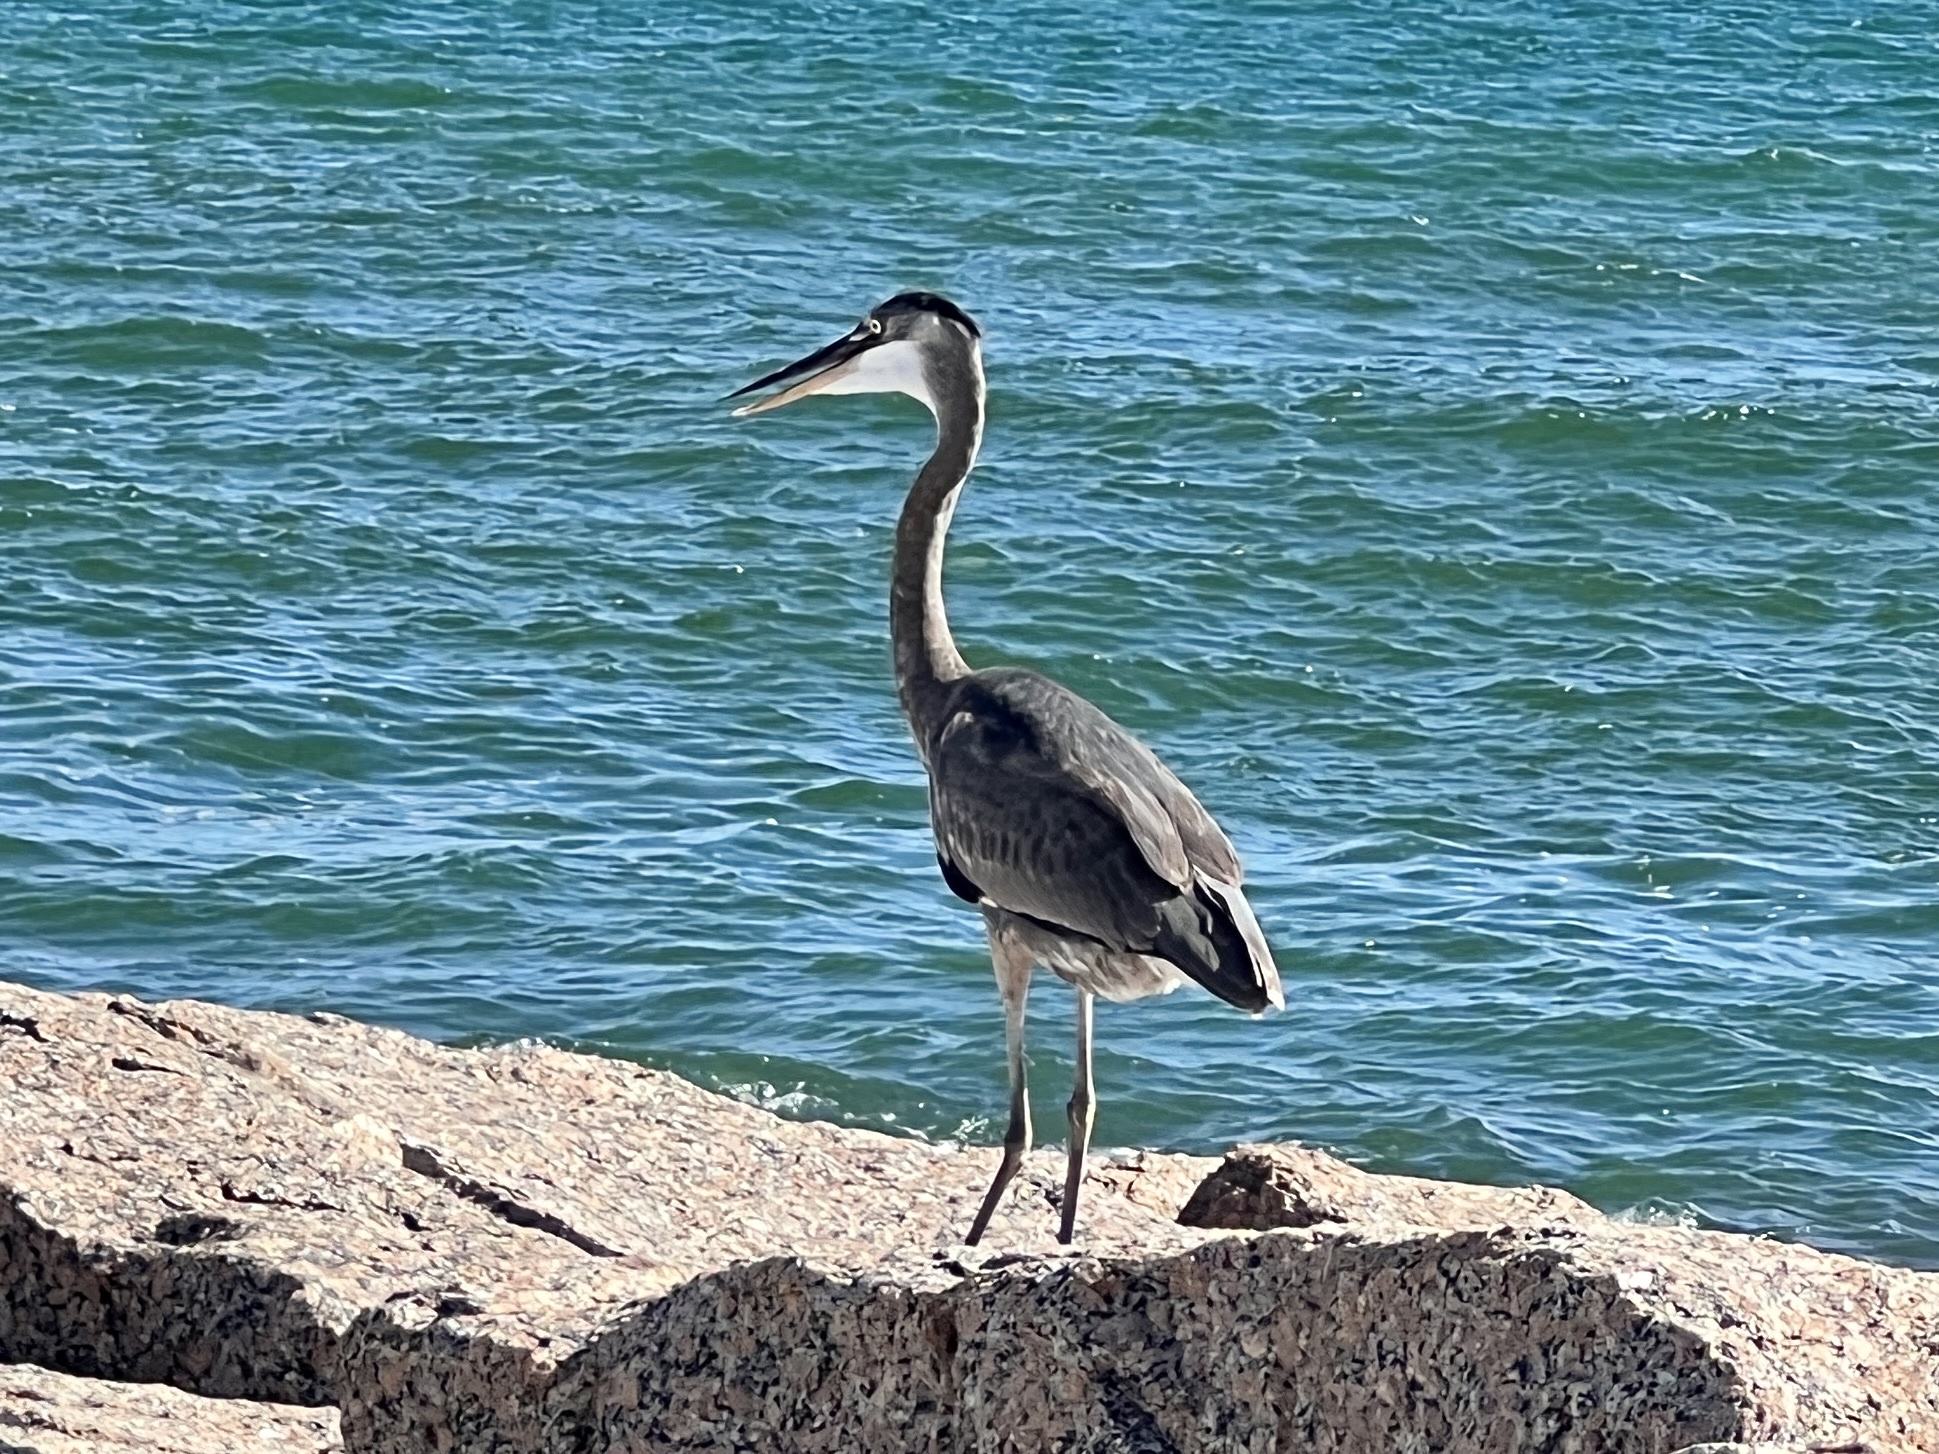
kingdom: Animalia
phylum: Chordata
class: Aves
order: Pelecaniformes
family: Ardeidae
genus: Ardea
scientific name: Ardea herodias
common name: Great blue heron
